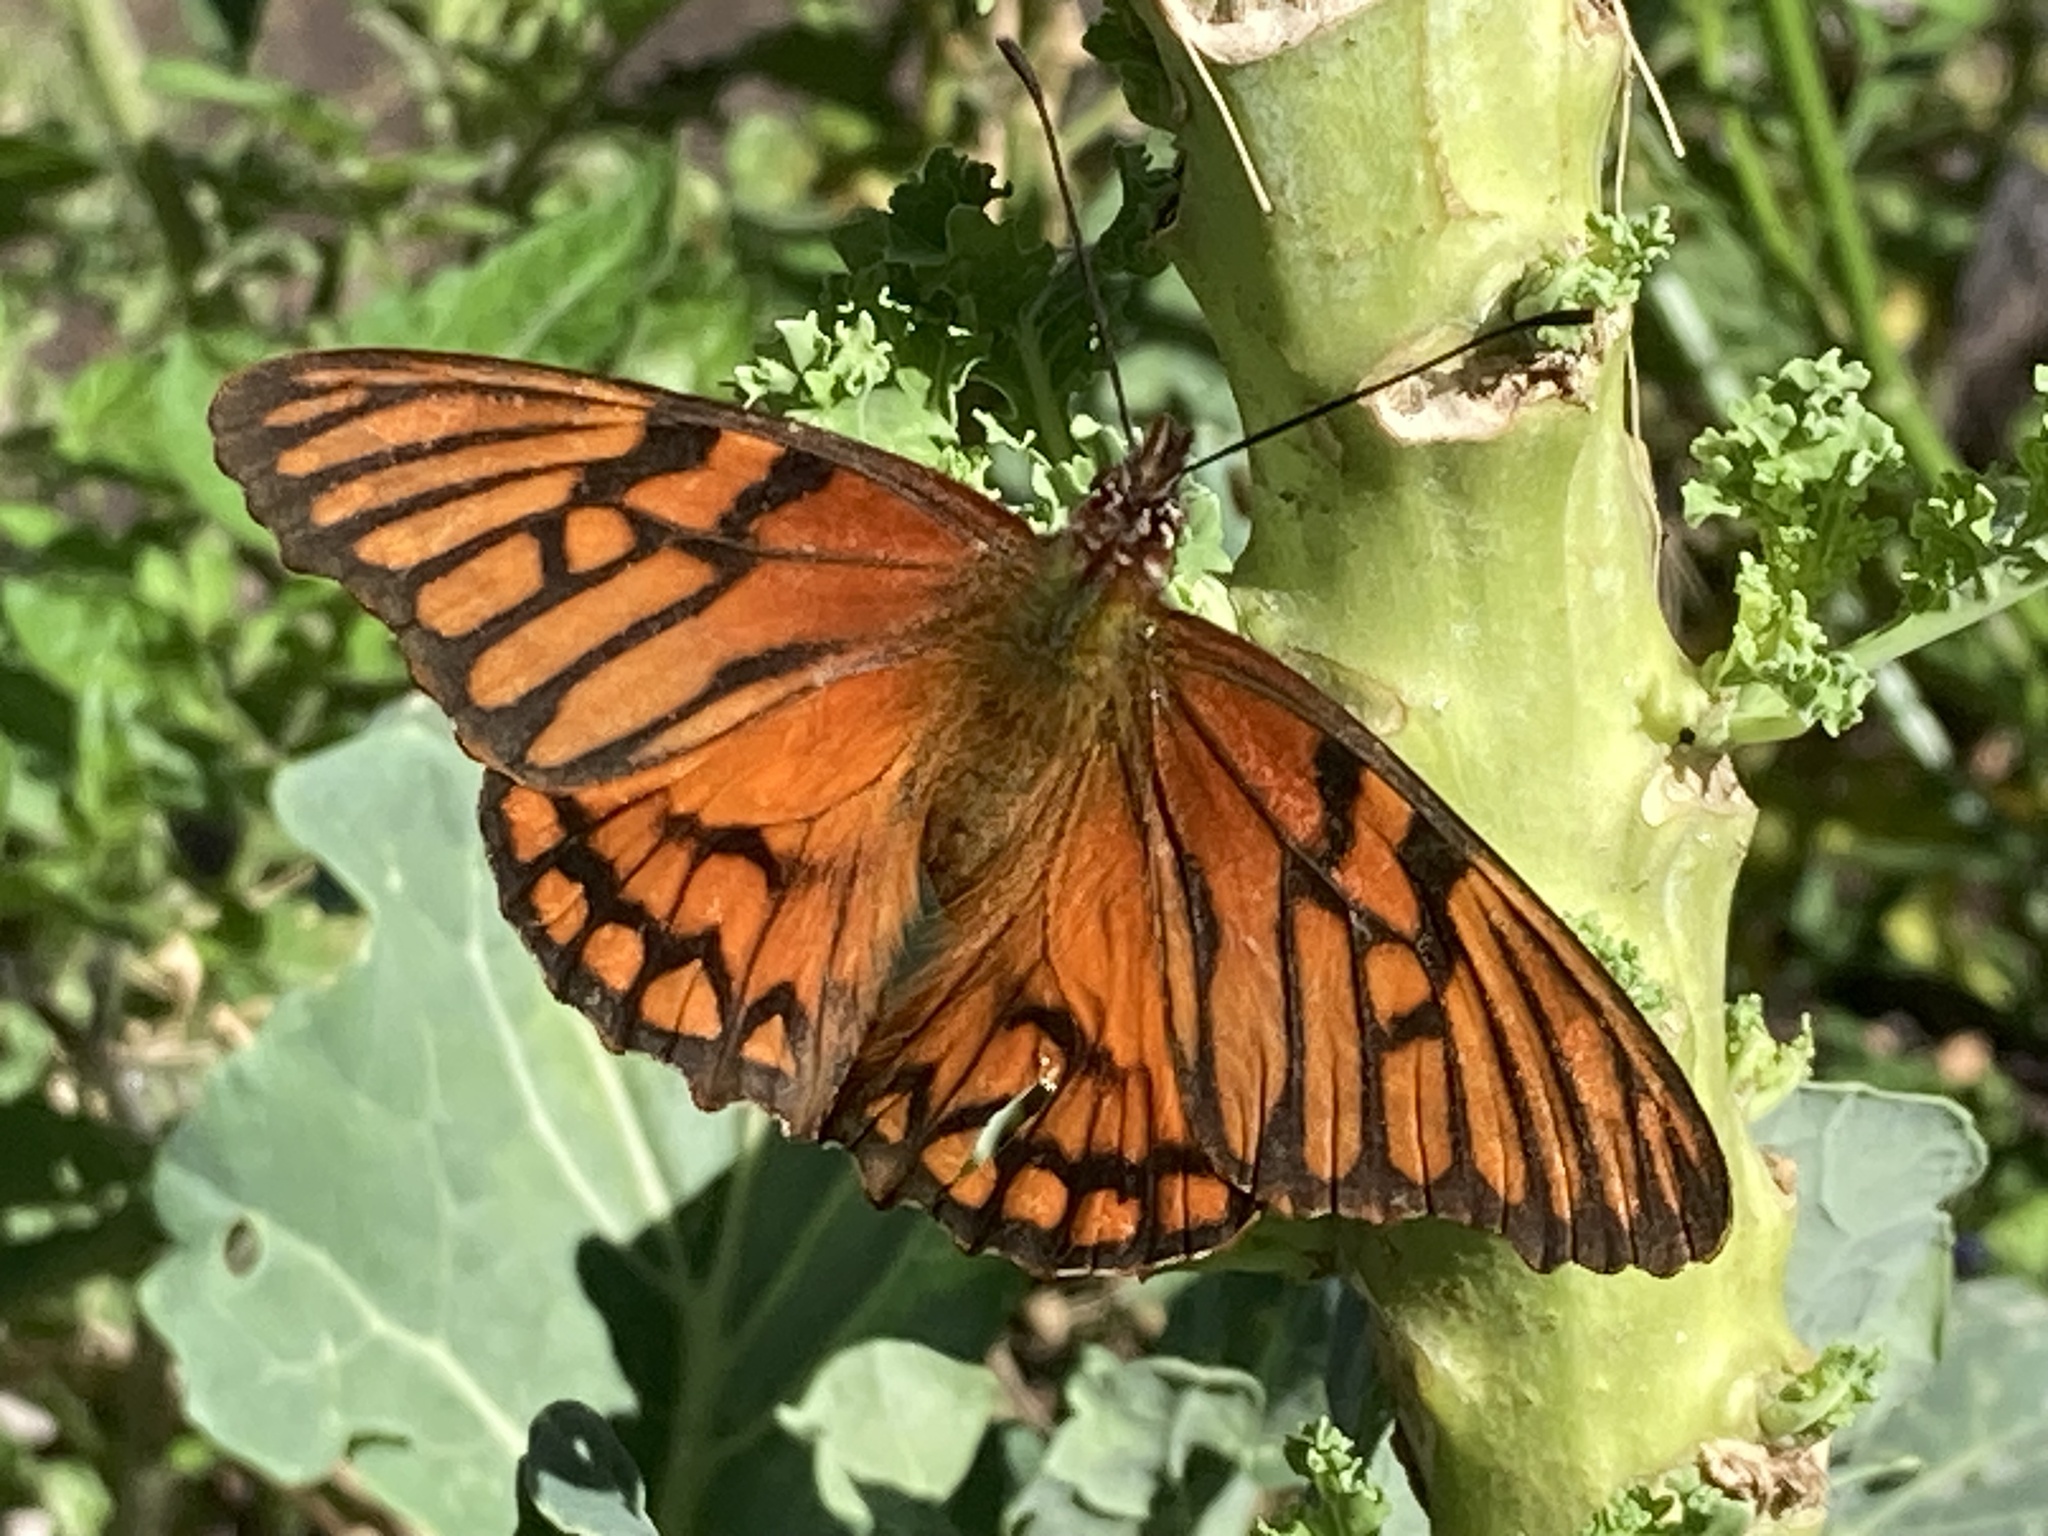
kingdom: Animalia
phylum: Arthropoda
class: Insecta
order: Lepidoptera
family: Nymphalidae
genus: Dione
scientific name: Dione glycera
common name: Andean silverspot
